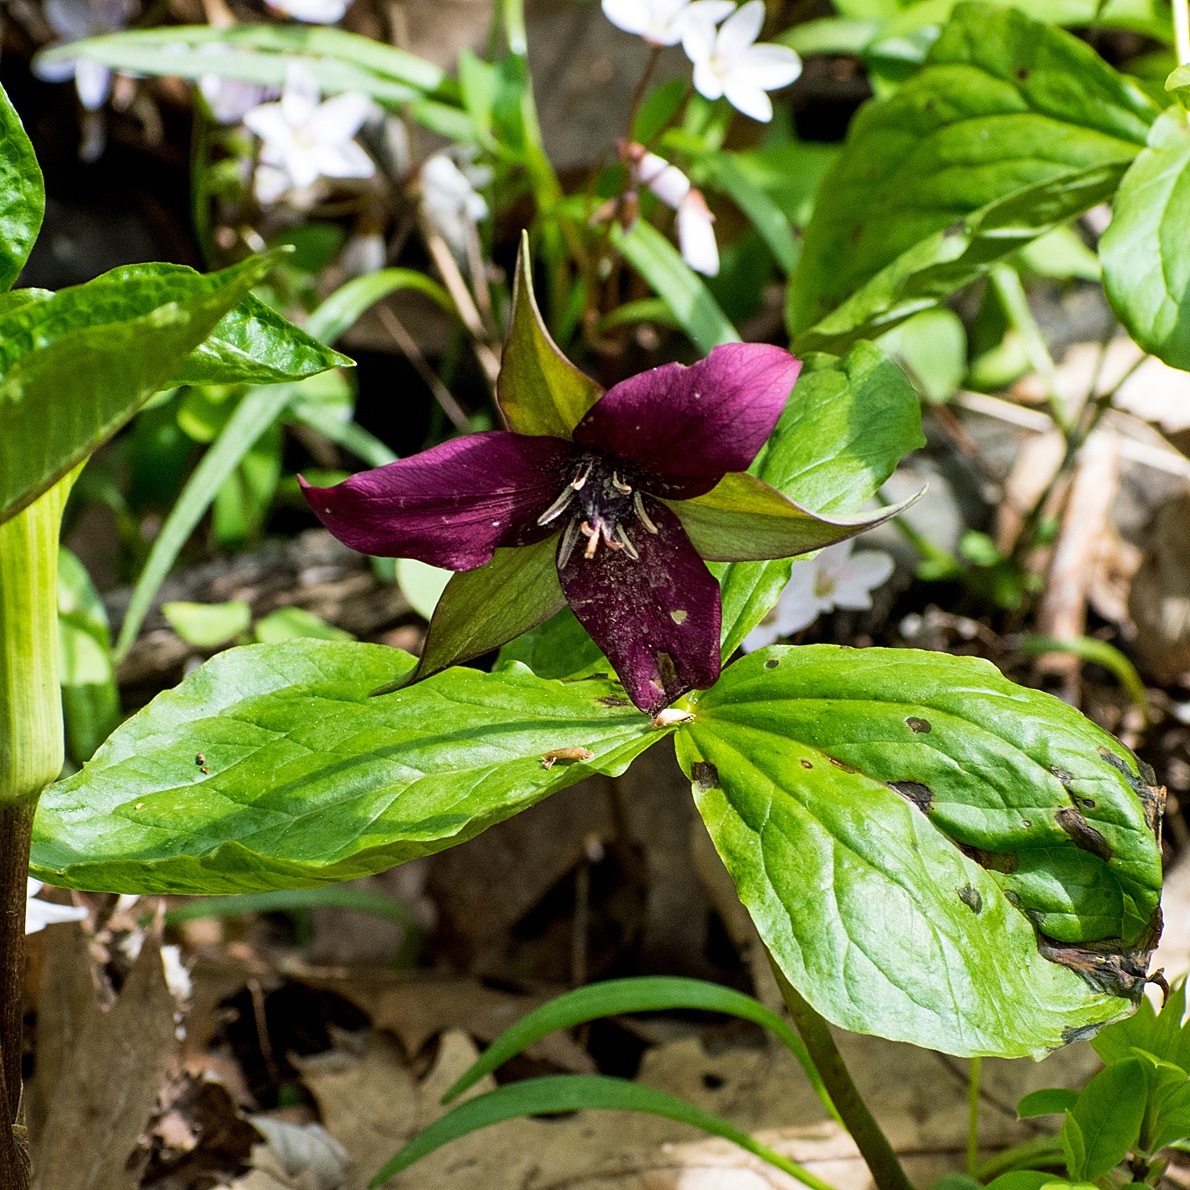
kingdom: Plantae
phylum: Tracheophyta
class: Liliopsida
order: Liliales
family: Melanthiaceae
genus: Trillium
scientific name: Trillium erectum
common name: Purple trillium
